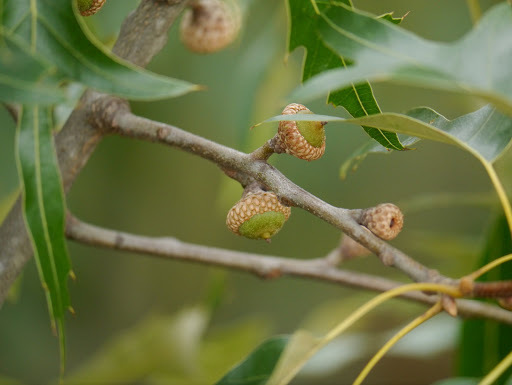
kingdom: Plantae
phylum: Tracheophyta
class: Magnoliopsida
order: Fagales
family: Fagaceae
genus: Quercus
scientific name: Quercus falcata
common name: Southern red oak
